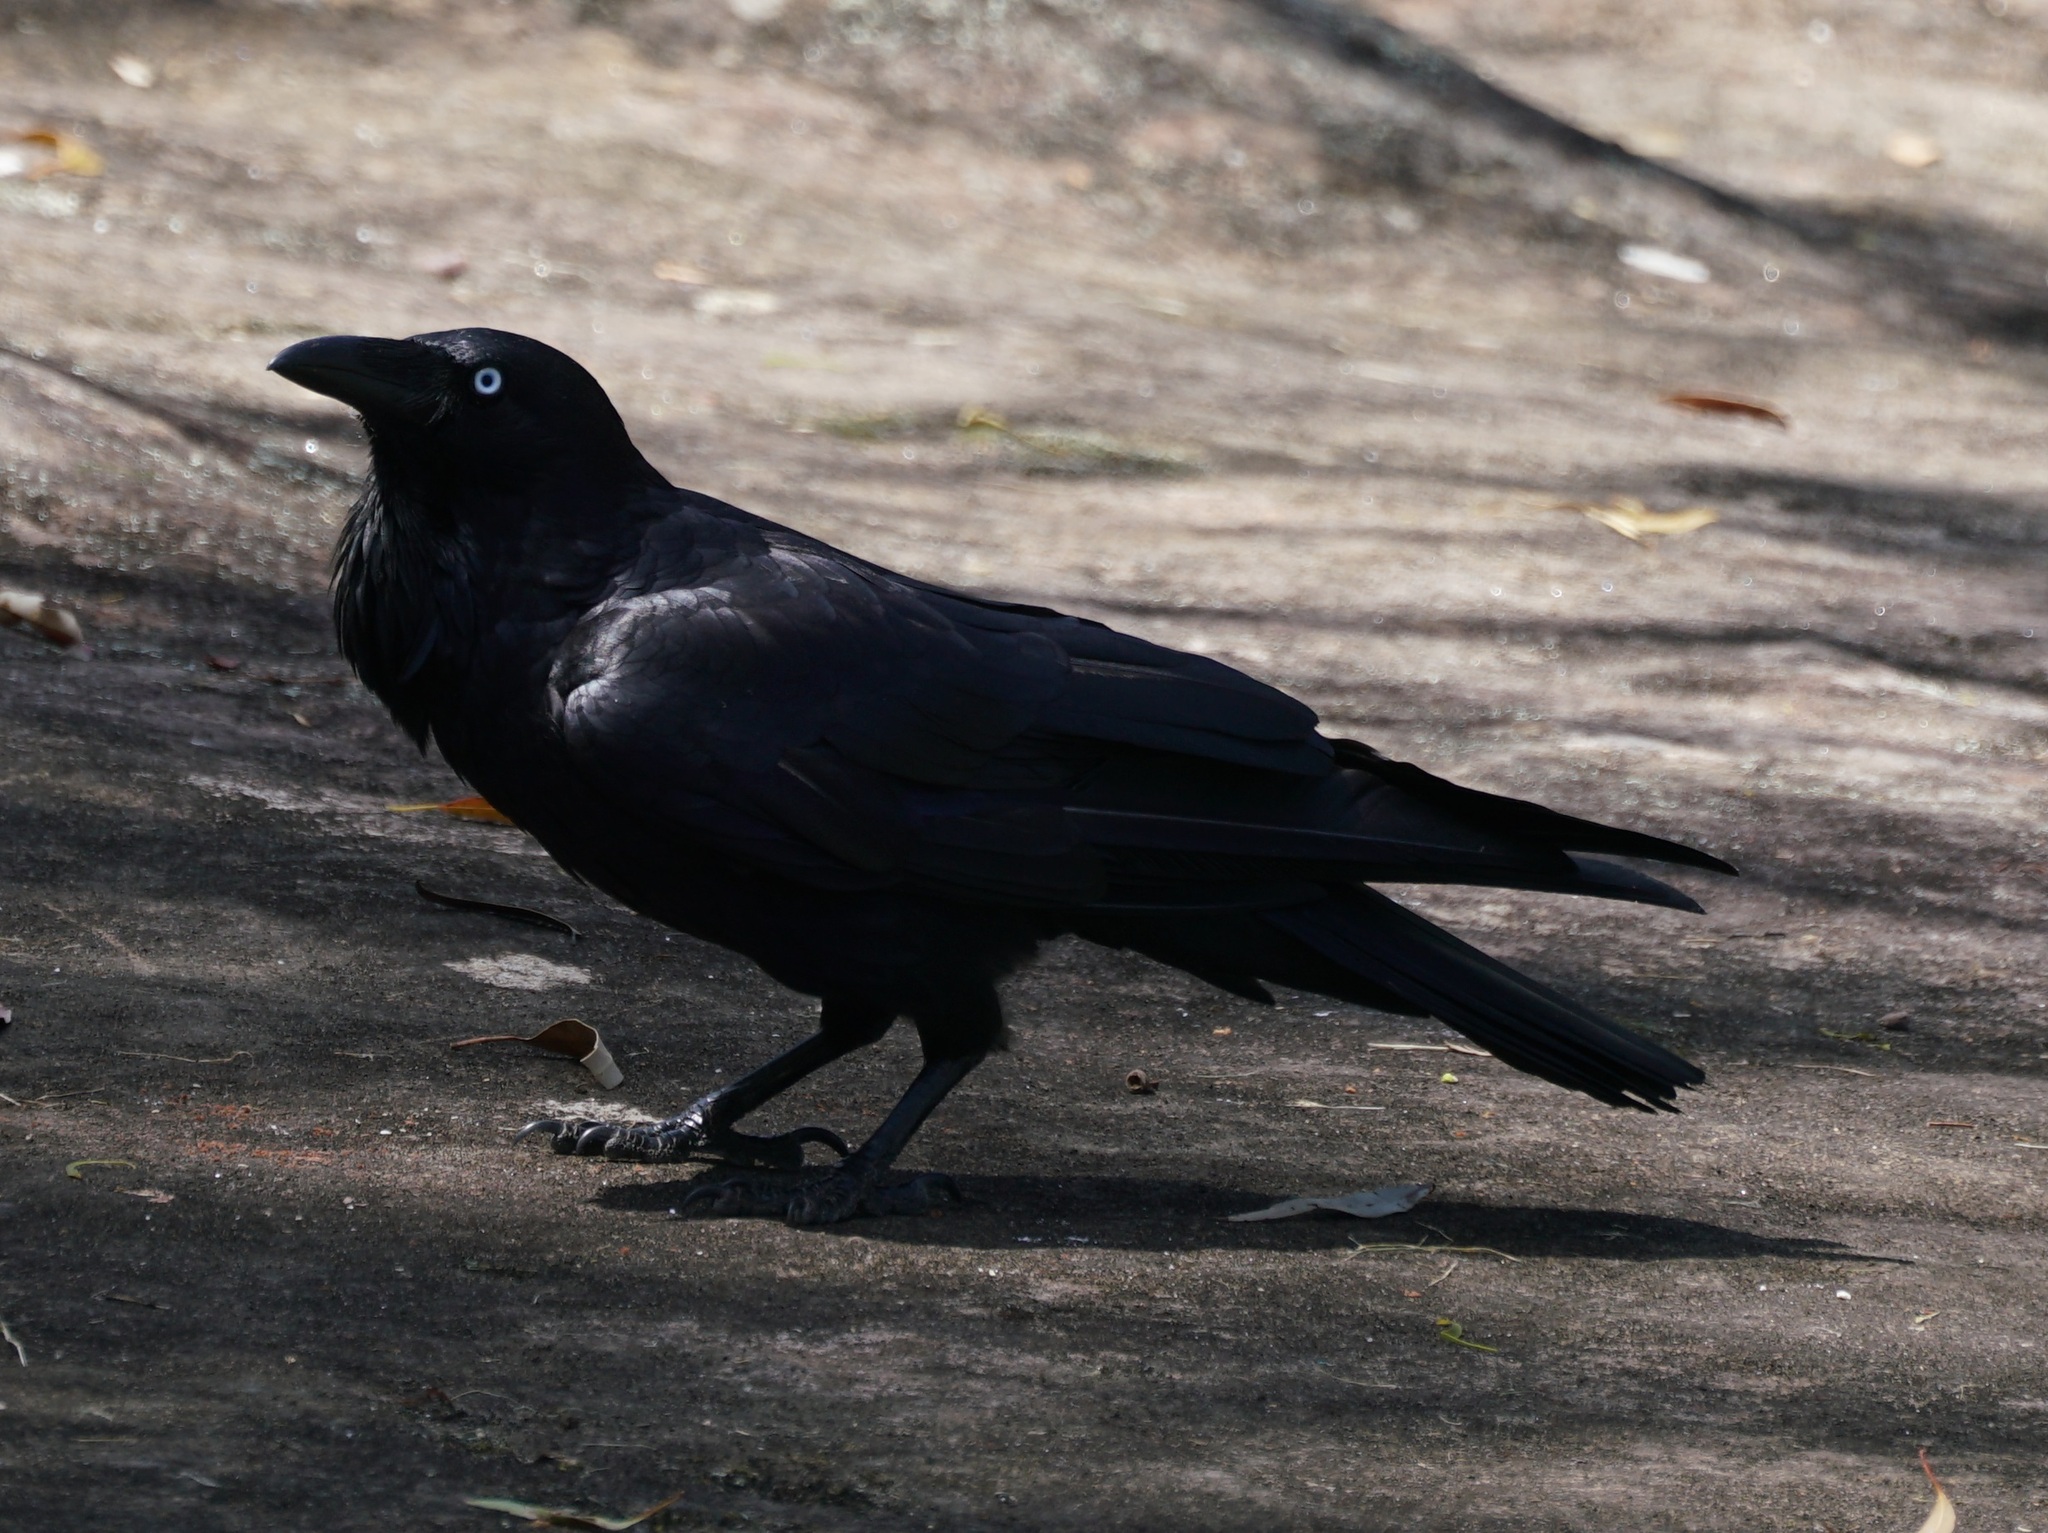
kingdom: Animalia
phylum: Chordata
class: Aves
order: Passeriformes
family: Corvidae
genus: Corvus
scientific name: Corvus coronoides
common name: Australian raven
